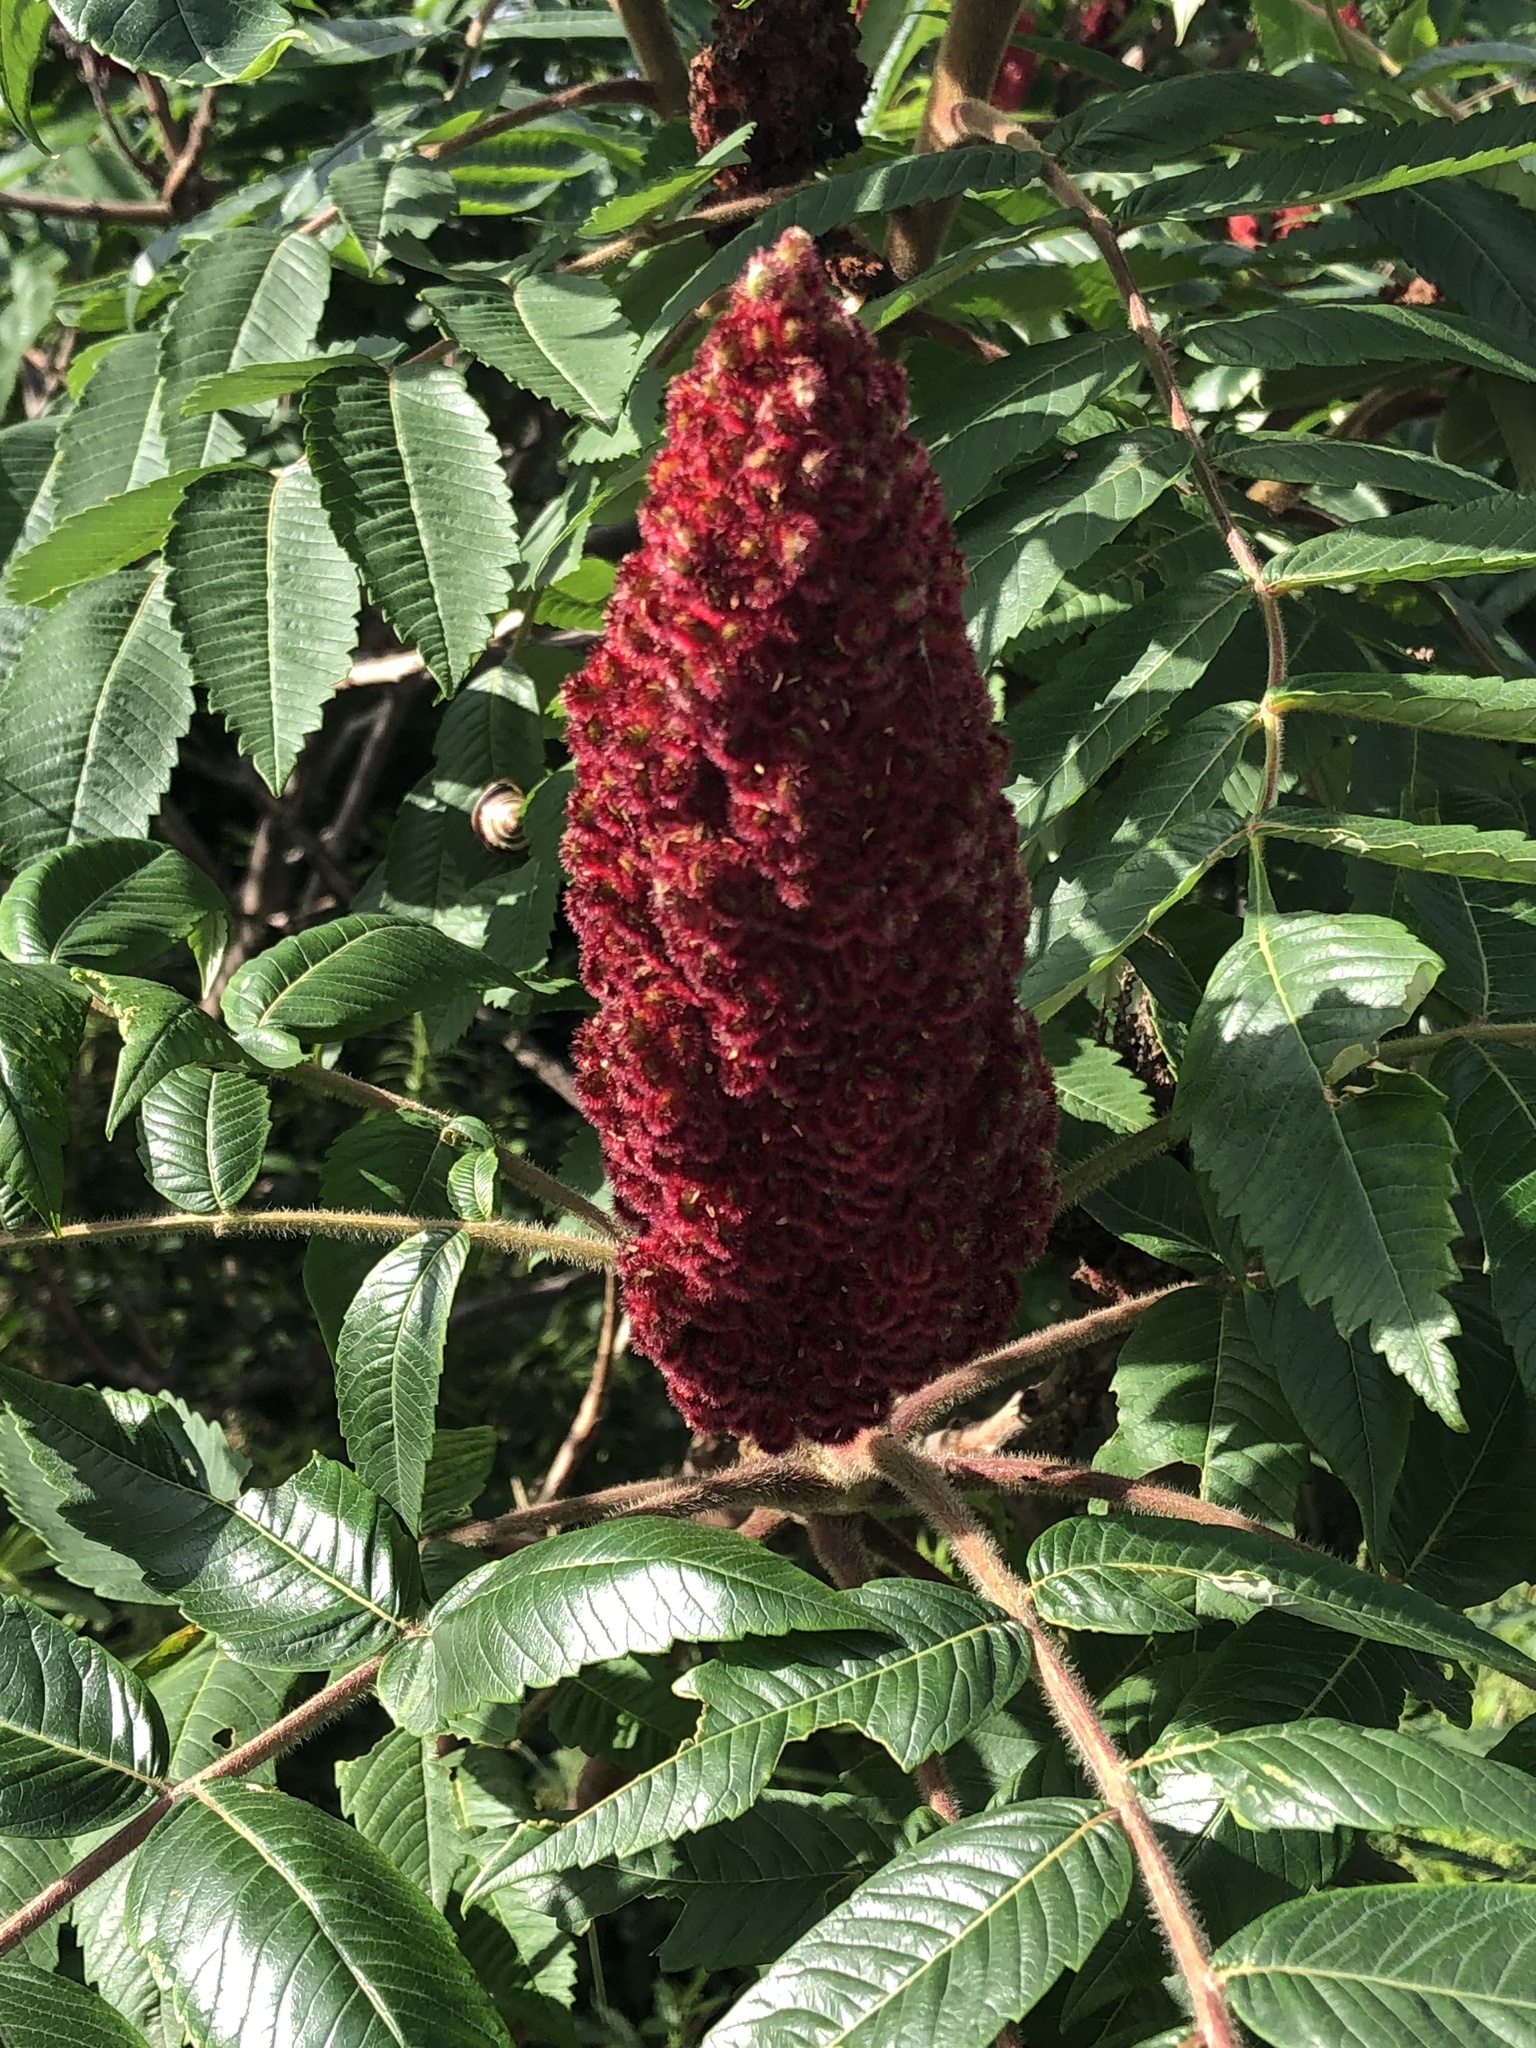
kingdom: Plantae
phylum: Tracheophyta
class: Magnoliopsida
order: Sapindales
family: Anacardiaceae
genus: Rhus
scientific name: Rhus typhina
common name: Staghorn sumac
